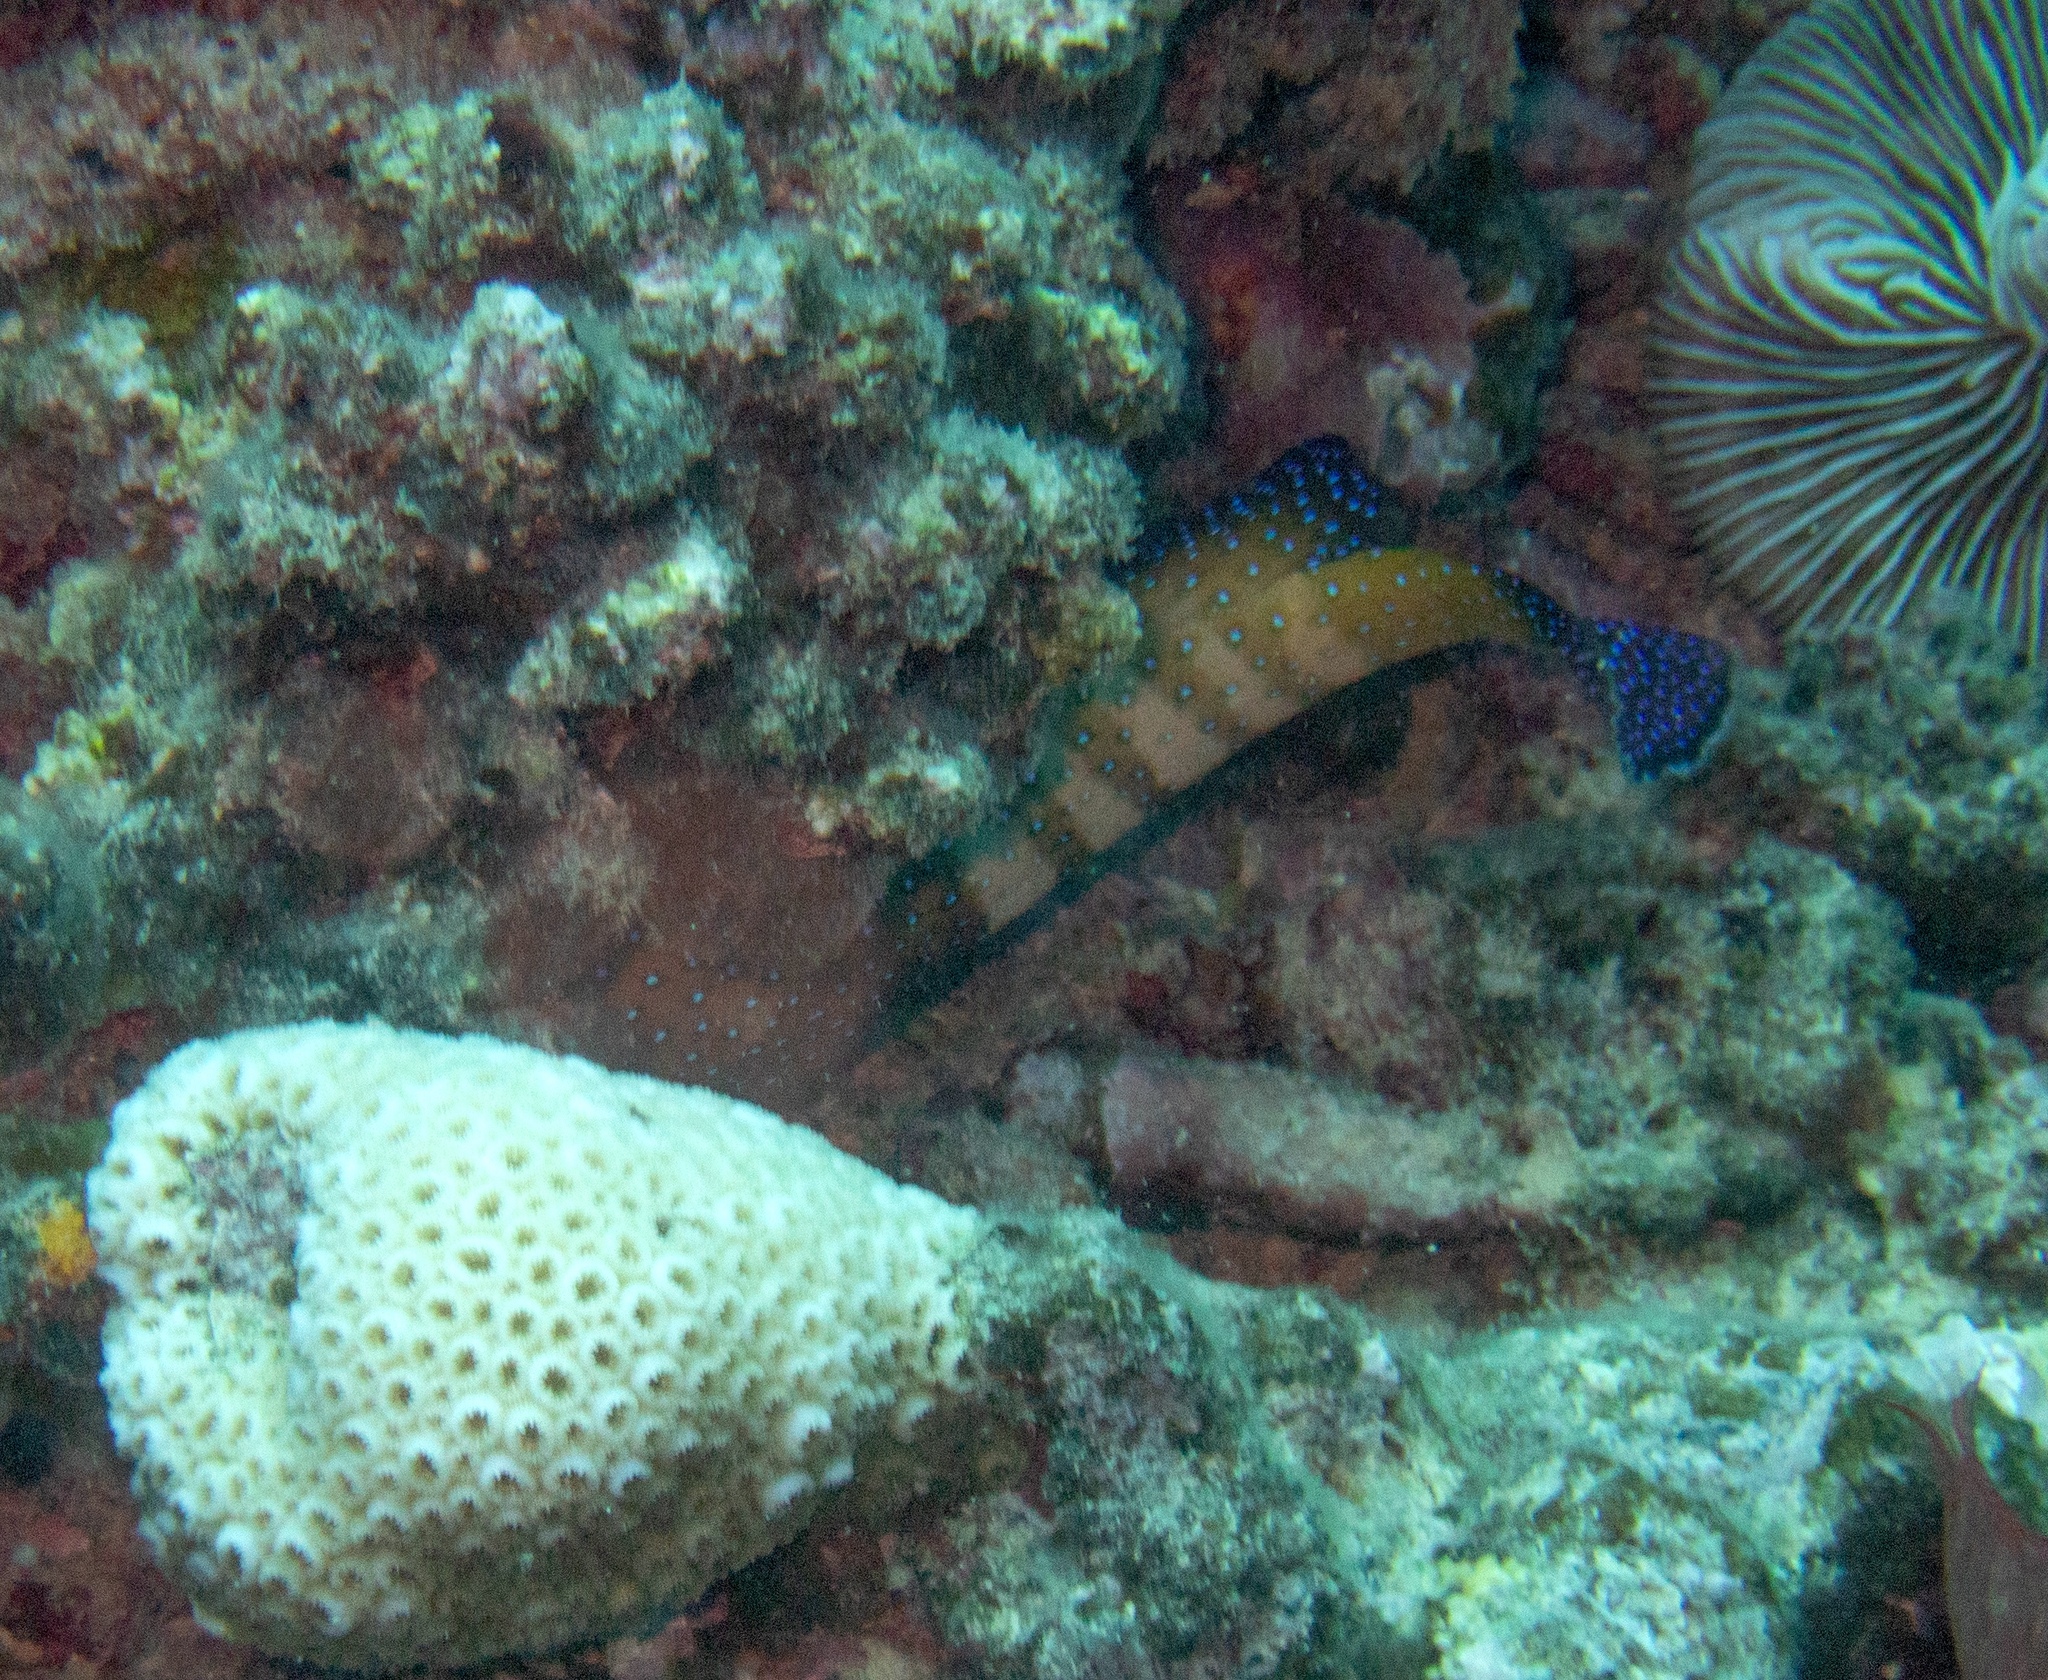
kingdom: Animalia
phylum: Chordata
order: Perciformes
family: Serranidae
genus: Cephalopholis
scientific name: Cephalopholis argus
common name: Peacock grouper
